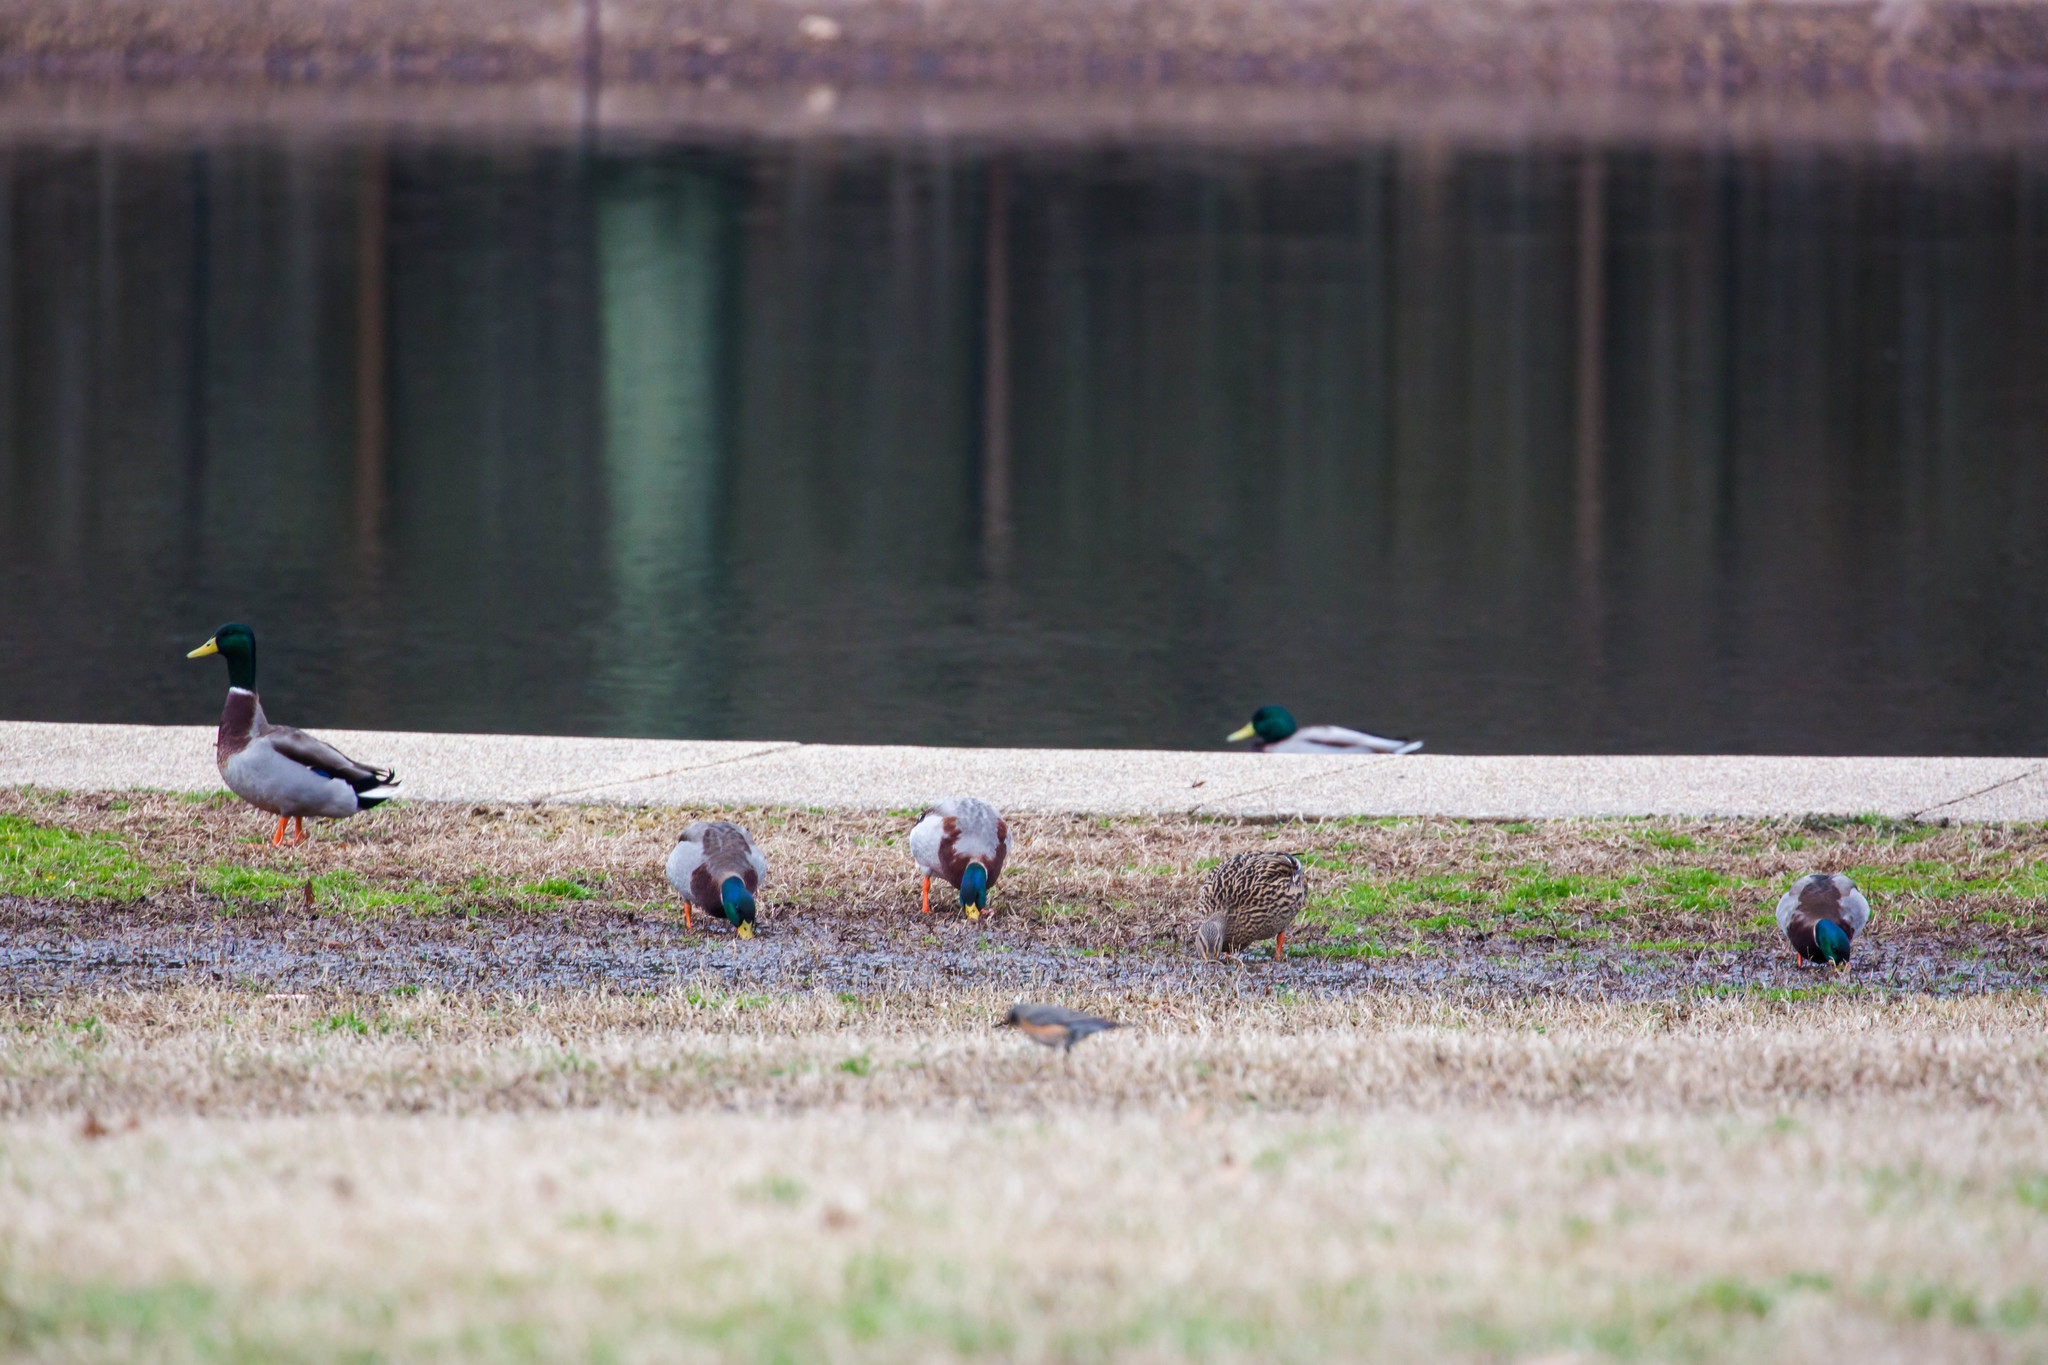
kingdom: Animalia
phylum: Chordata
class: Aves
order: Anseriformes
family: Anatidae
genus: Anas
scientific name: Anas platyrhynchos
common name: Mallard
